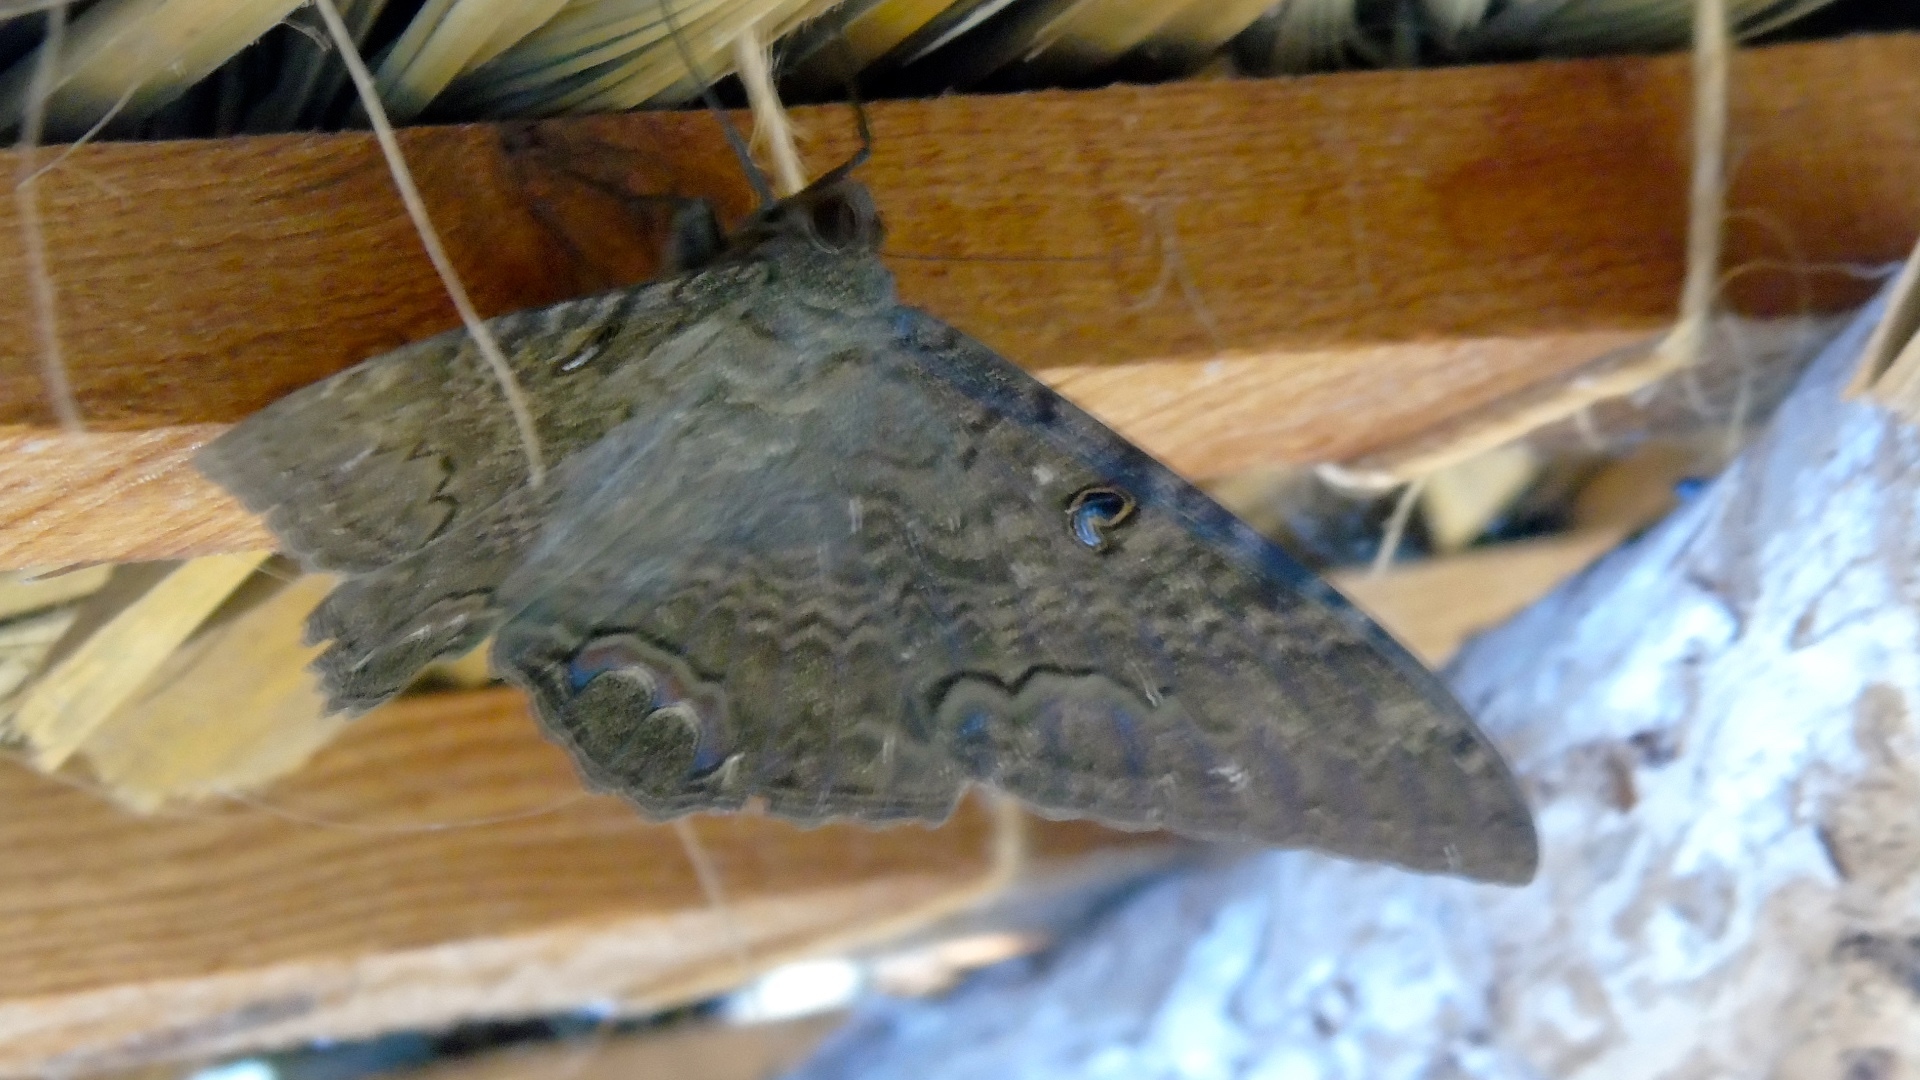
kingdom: Animalia
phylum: Arthropoda
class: Insecta
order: Lepidoptera
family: Erebidae
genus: Ascalapha
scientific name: Ascalapha odorata
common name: Black witch
